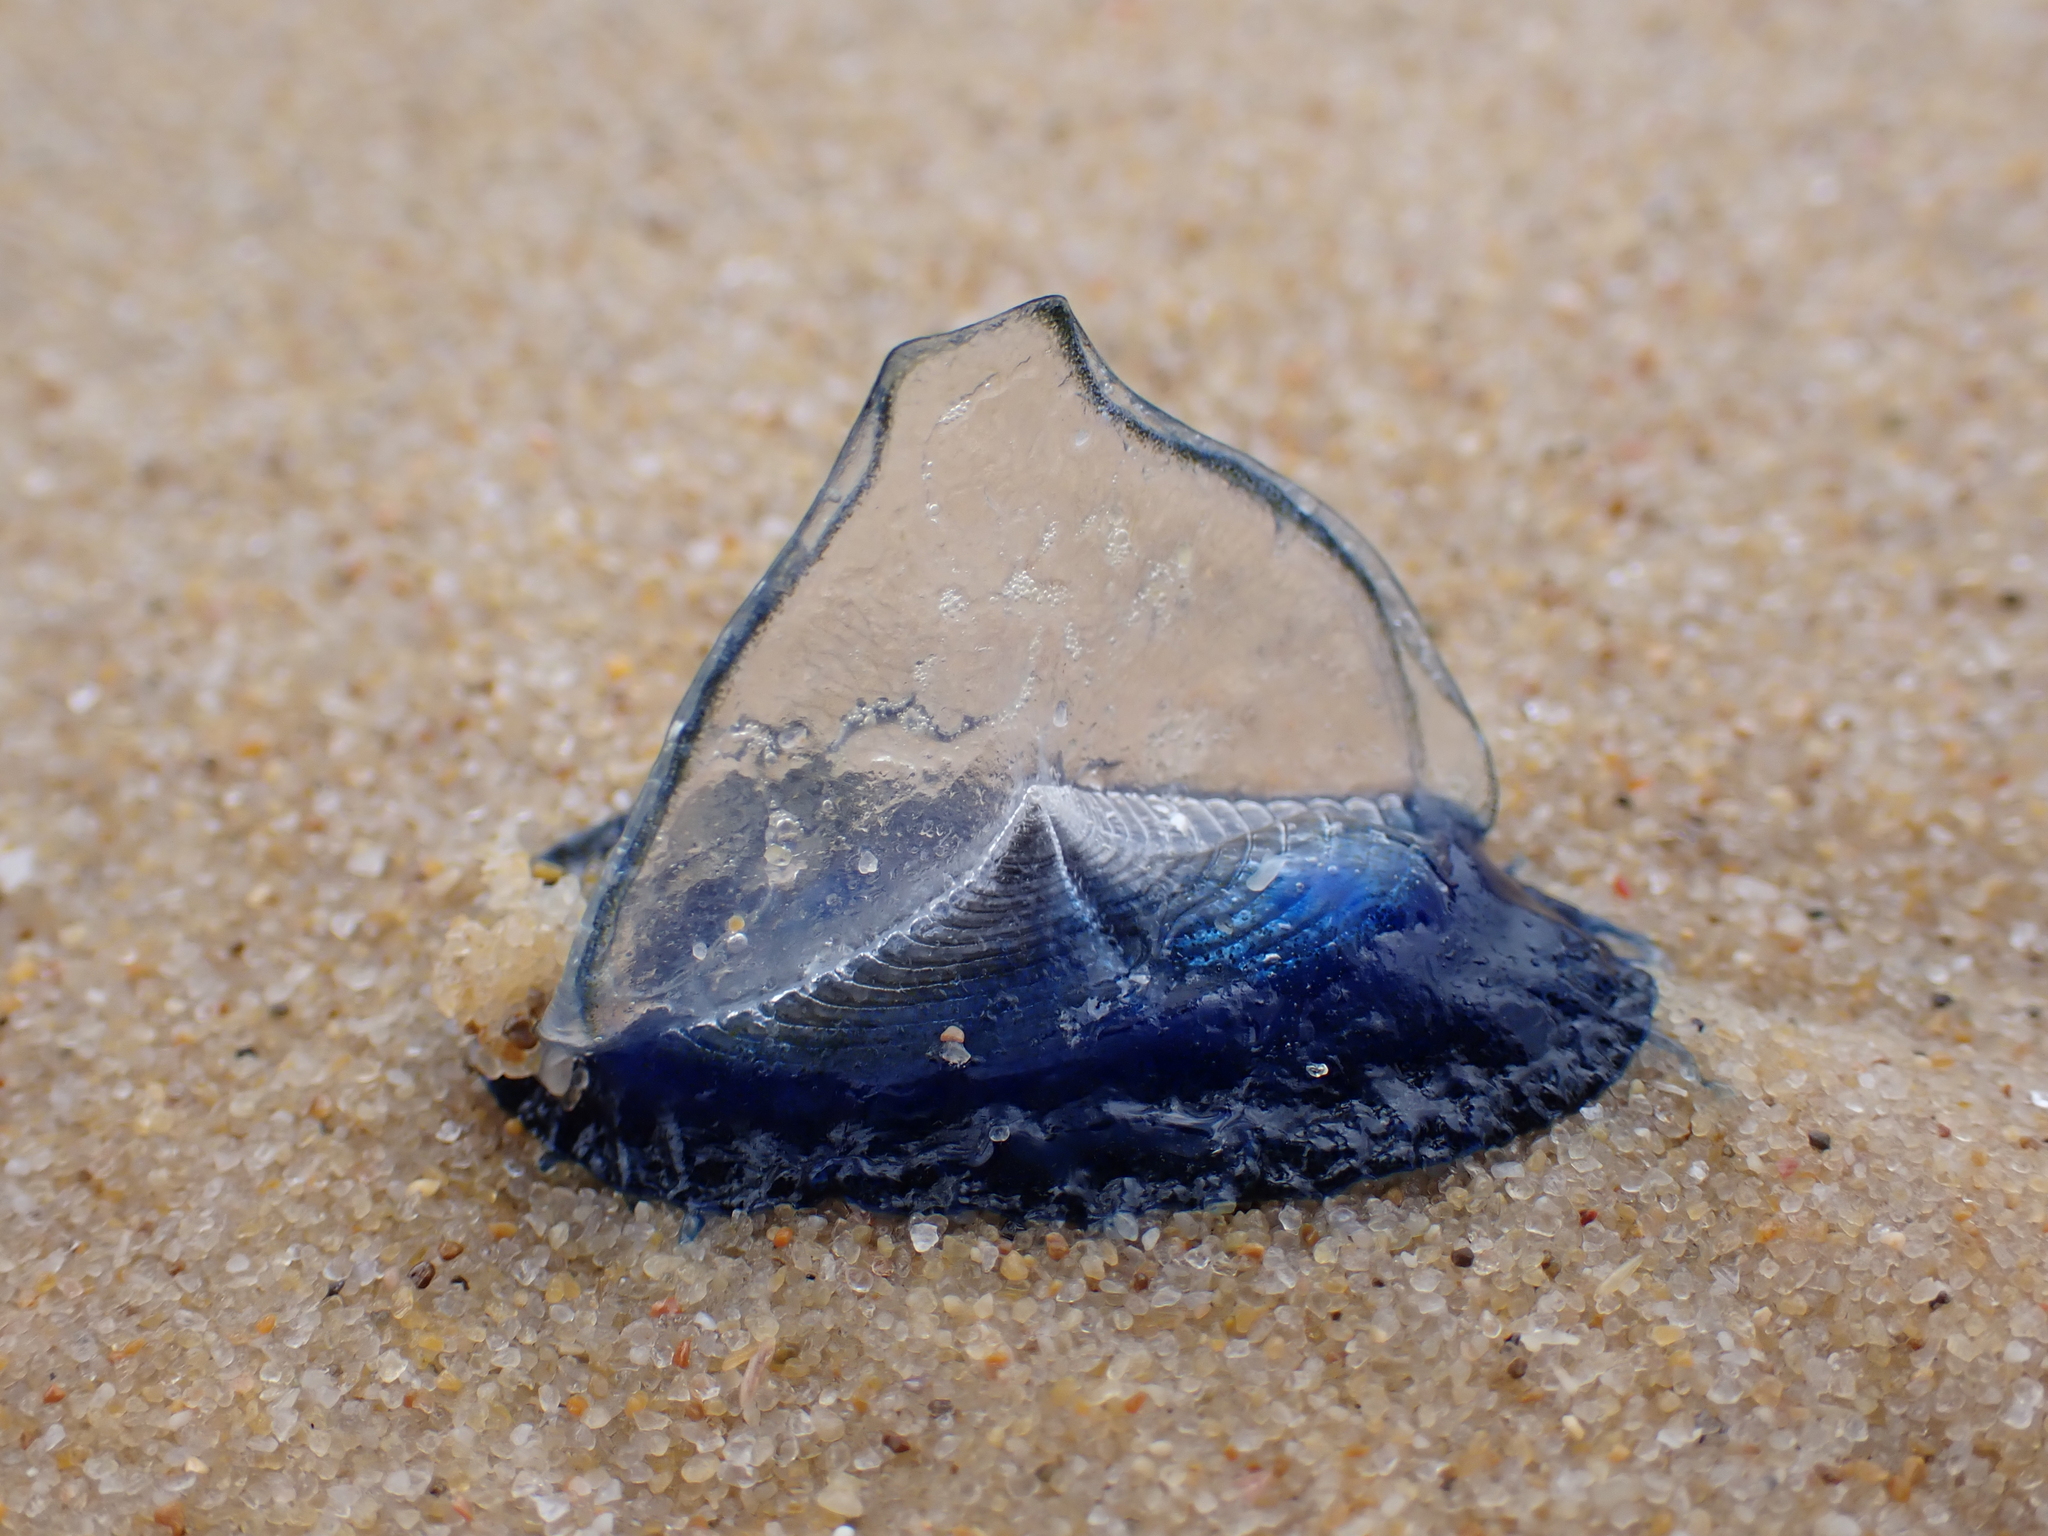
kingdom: Animalia
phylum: Cnidaria
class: Hydrozoa
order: Anthoathecata
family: Porpitidae
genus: Velella
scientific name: Velella velella
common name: By-the-wind-sailor
